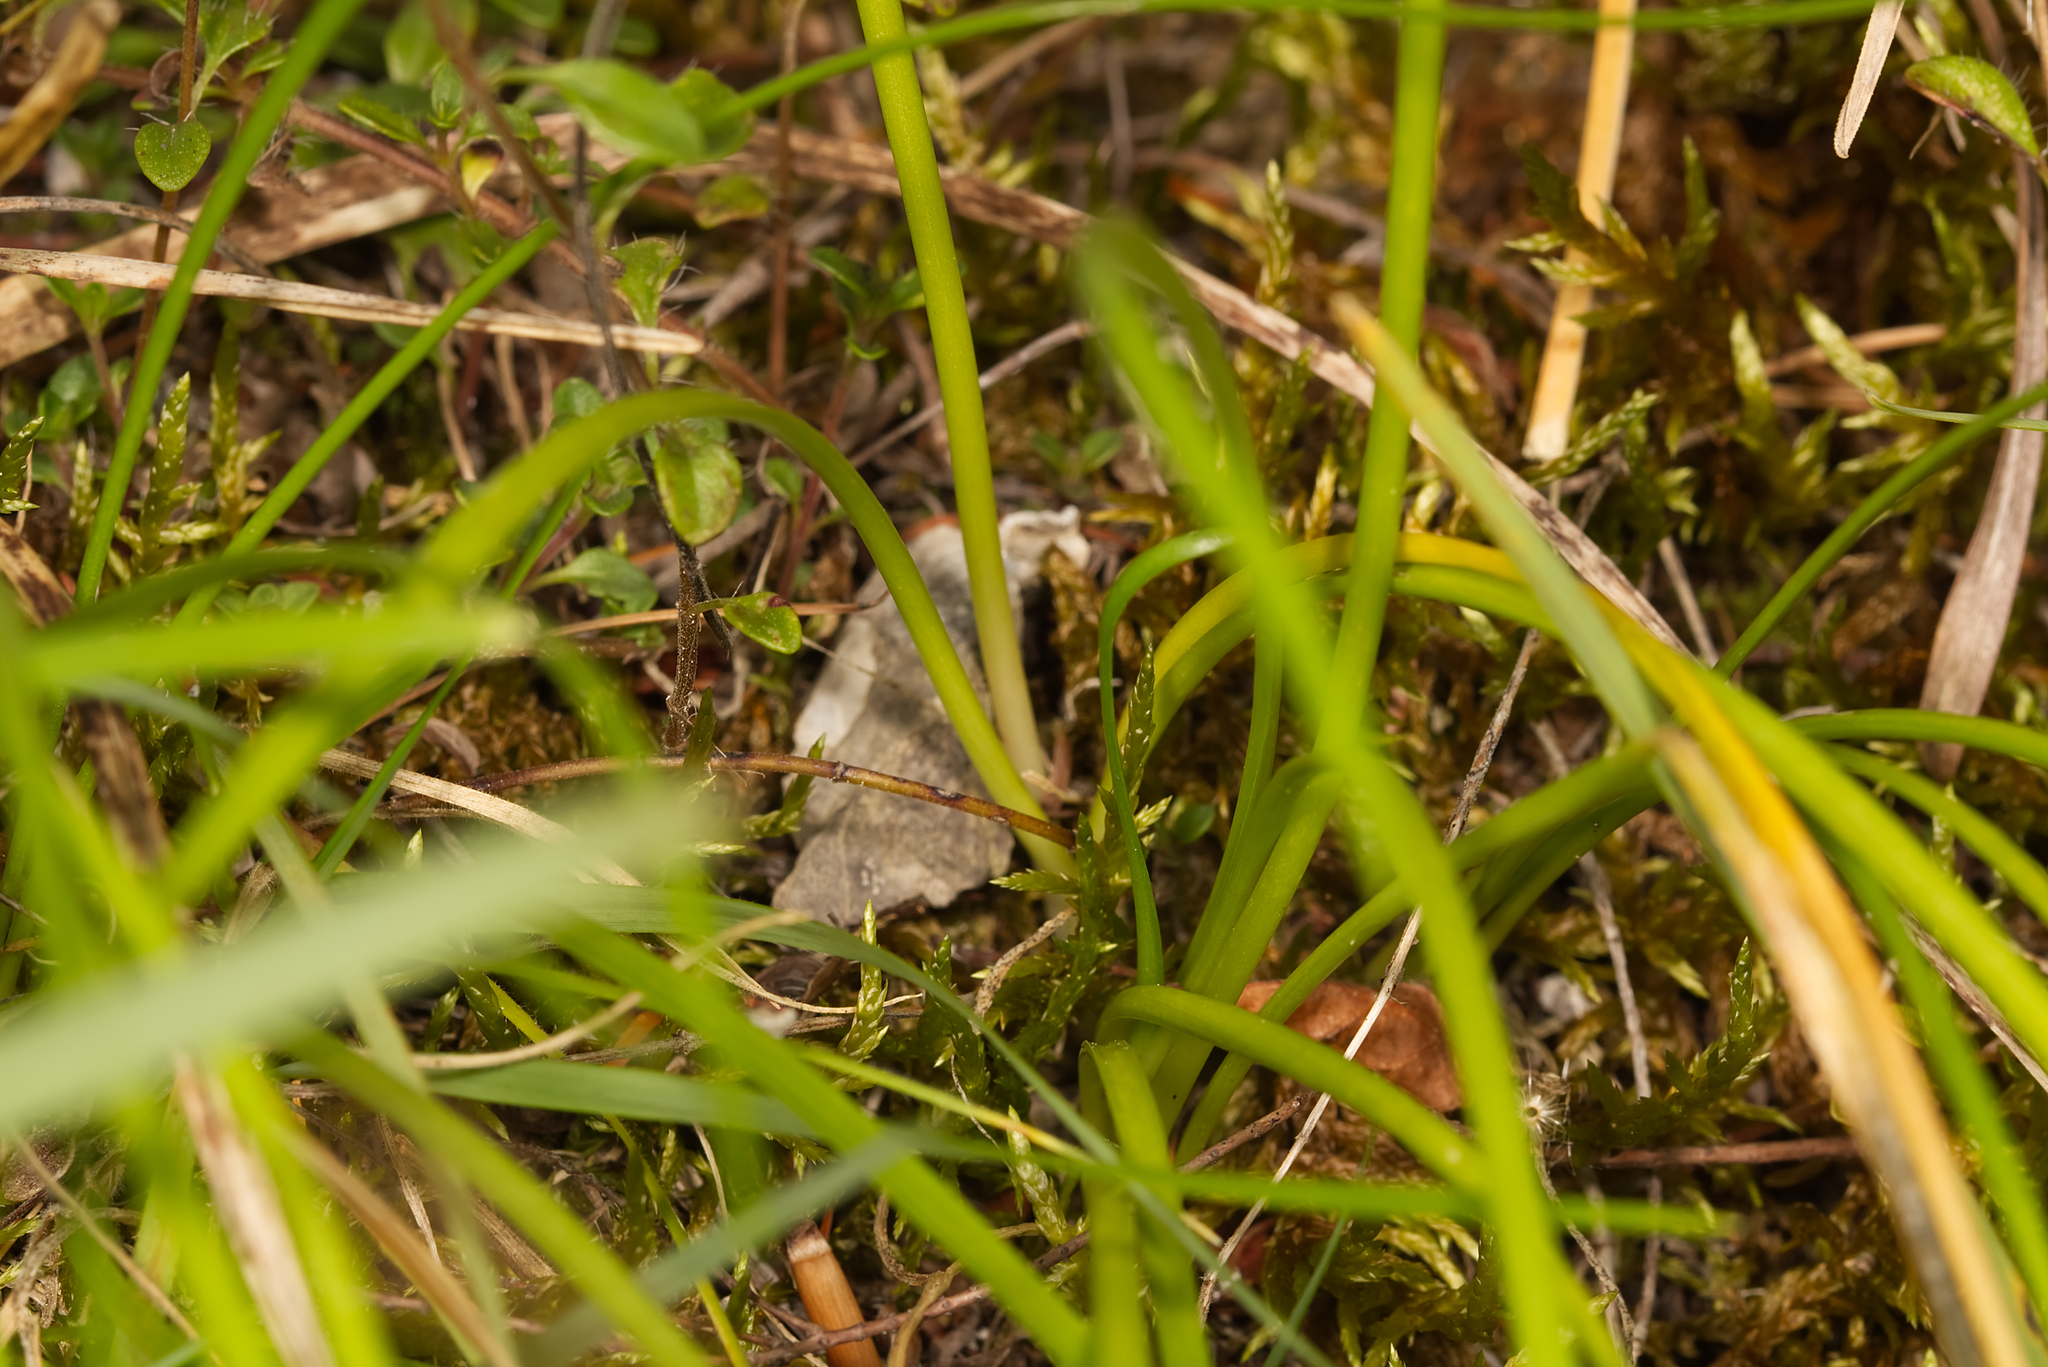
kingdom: Plantae
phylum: Tracheophyta
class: Liliopsida
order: Asparagales
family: Amaryllidaceae
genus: Allium
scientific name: Allium lusitanicum
